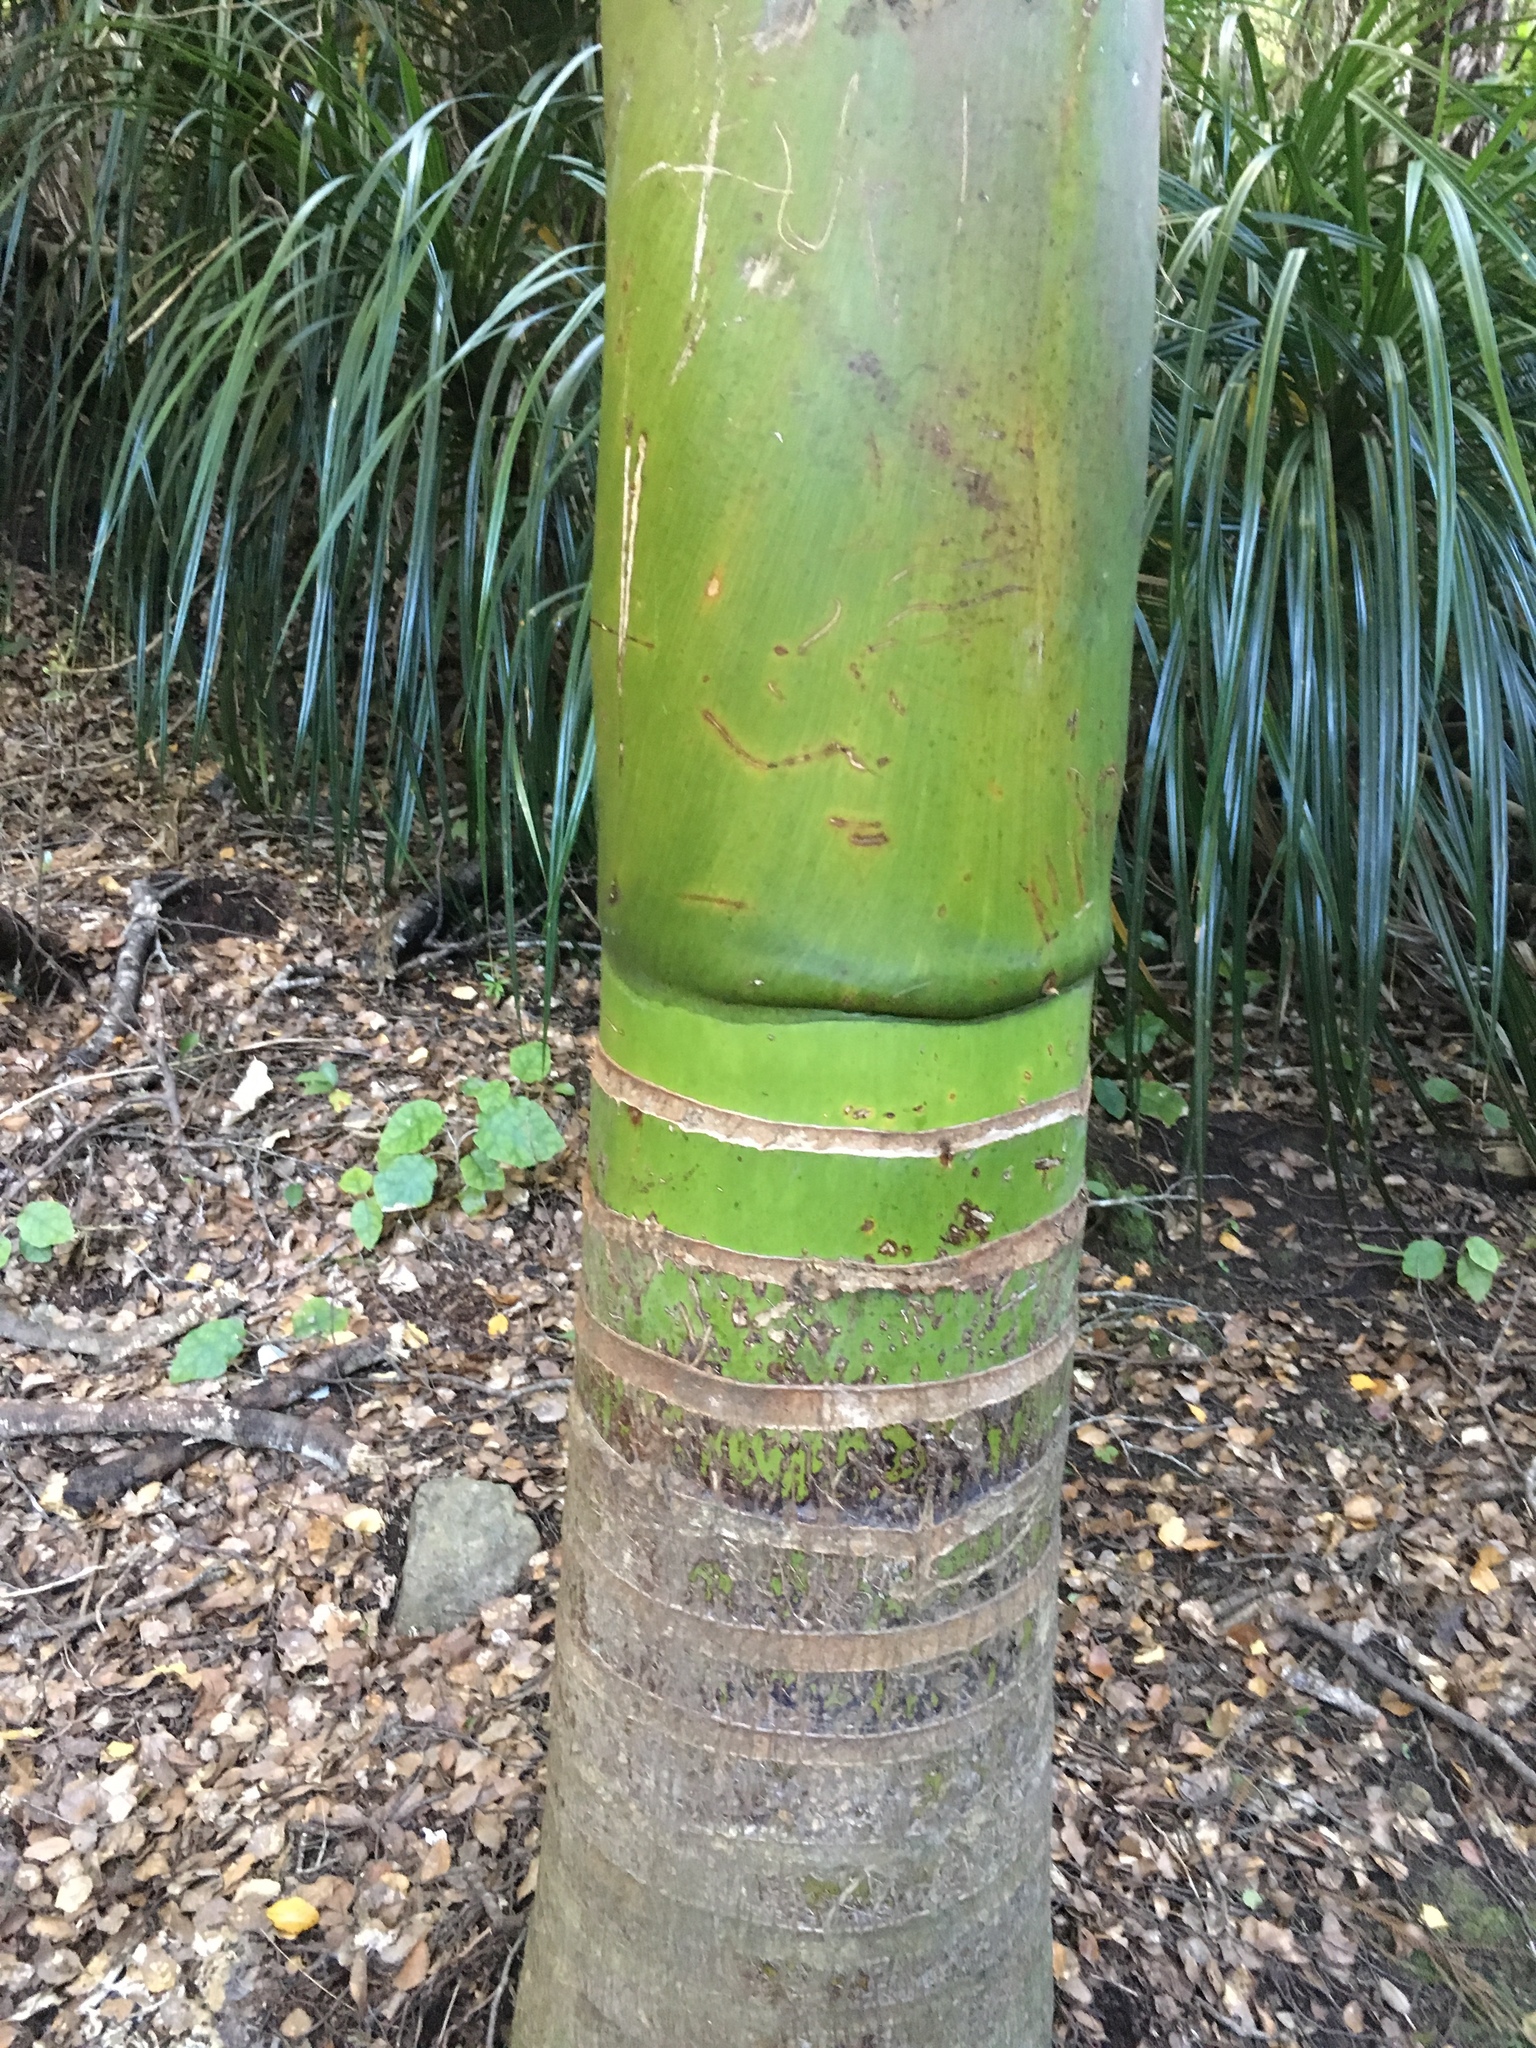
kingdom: Plantae
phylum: Tracheophyta
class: Liliopsida
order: Arecales
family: Arecaceae
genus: Rhopalostylis
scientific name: Rhopalostylis sapida
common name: Feather-duster palm
